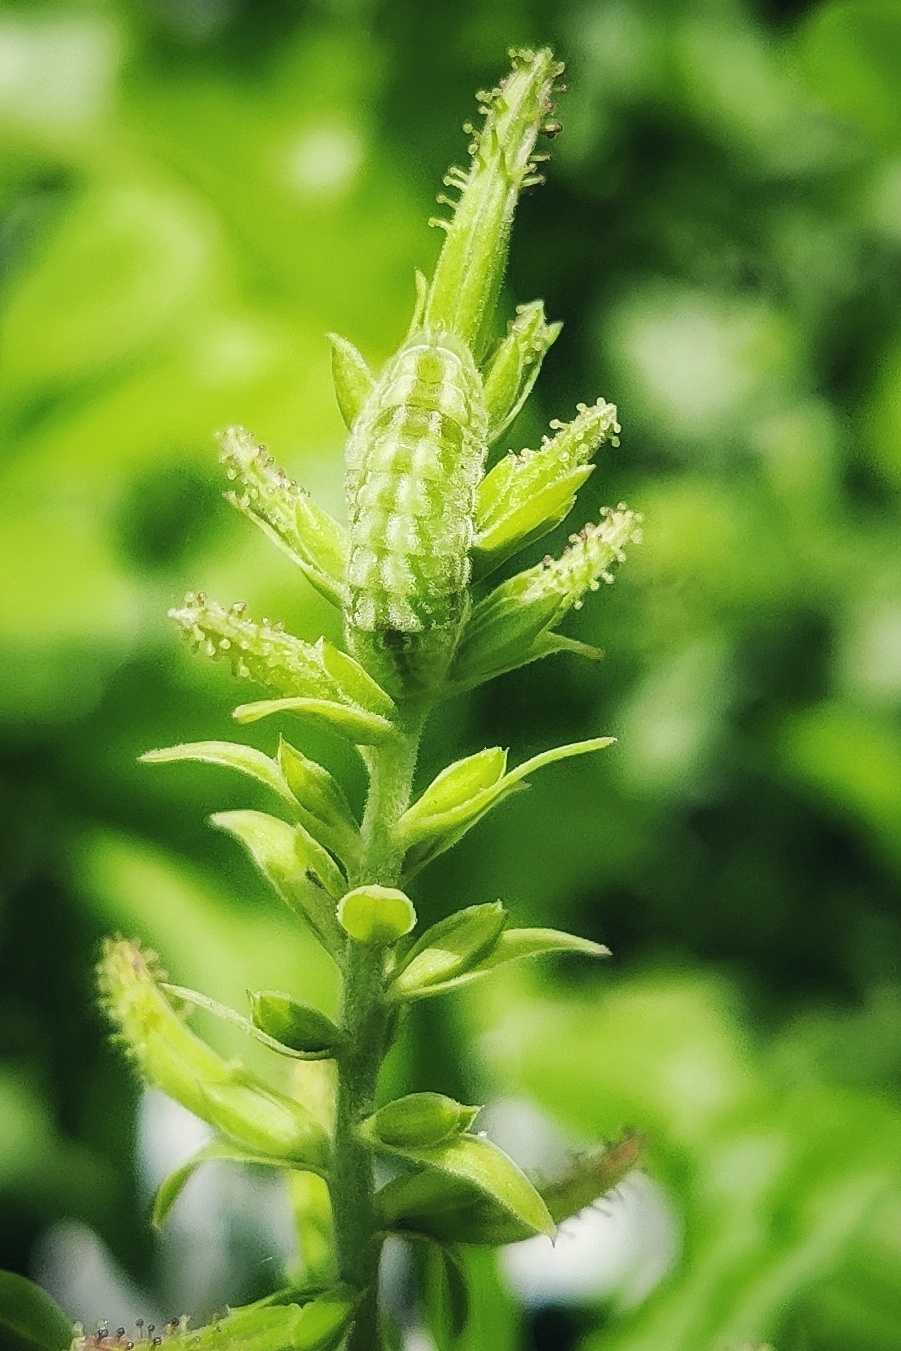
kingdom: Animalia
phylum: Arthropoda
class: Insecta
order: Lepidoptera
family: Lycaenidae
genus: Leptotes
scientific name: Leptotes plinius
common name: Zebra blue
